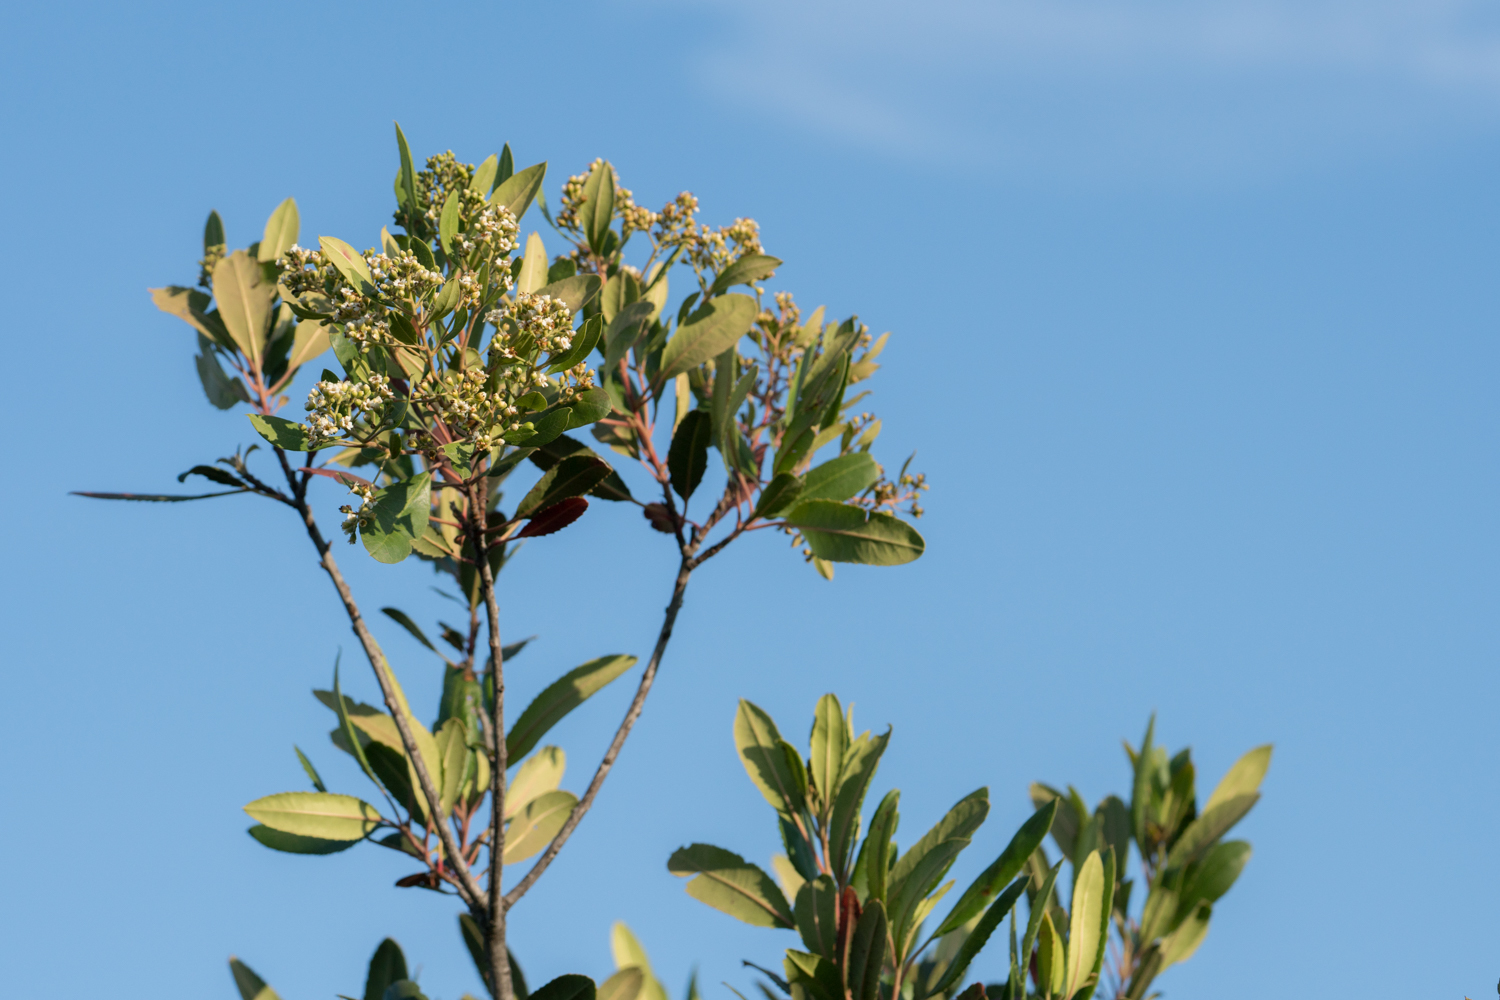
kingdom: Plantae
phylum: Tracheophyta
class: Magnoliopsida
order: Rosales
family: Rosaceae
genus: Heteromeles
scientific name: Heteromeles arbutifolia
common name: California-holly
